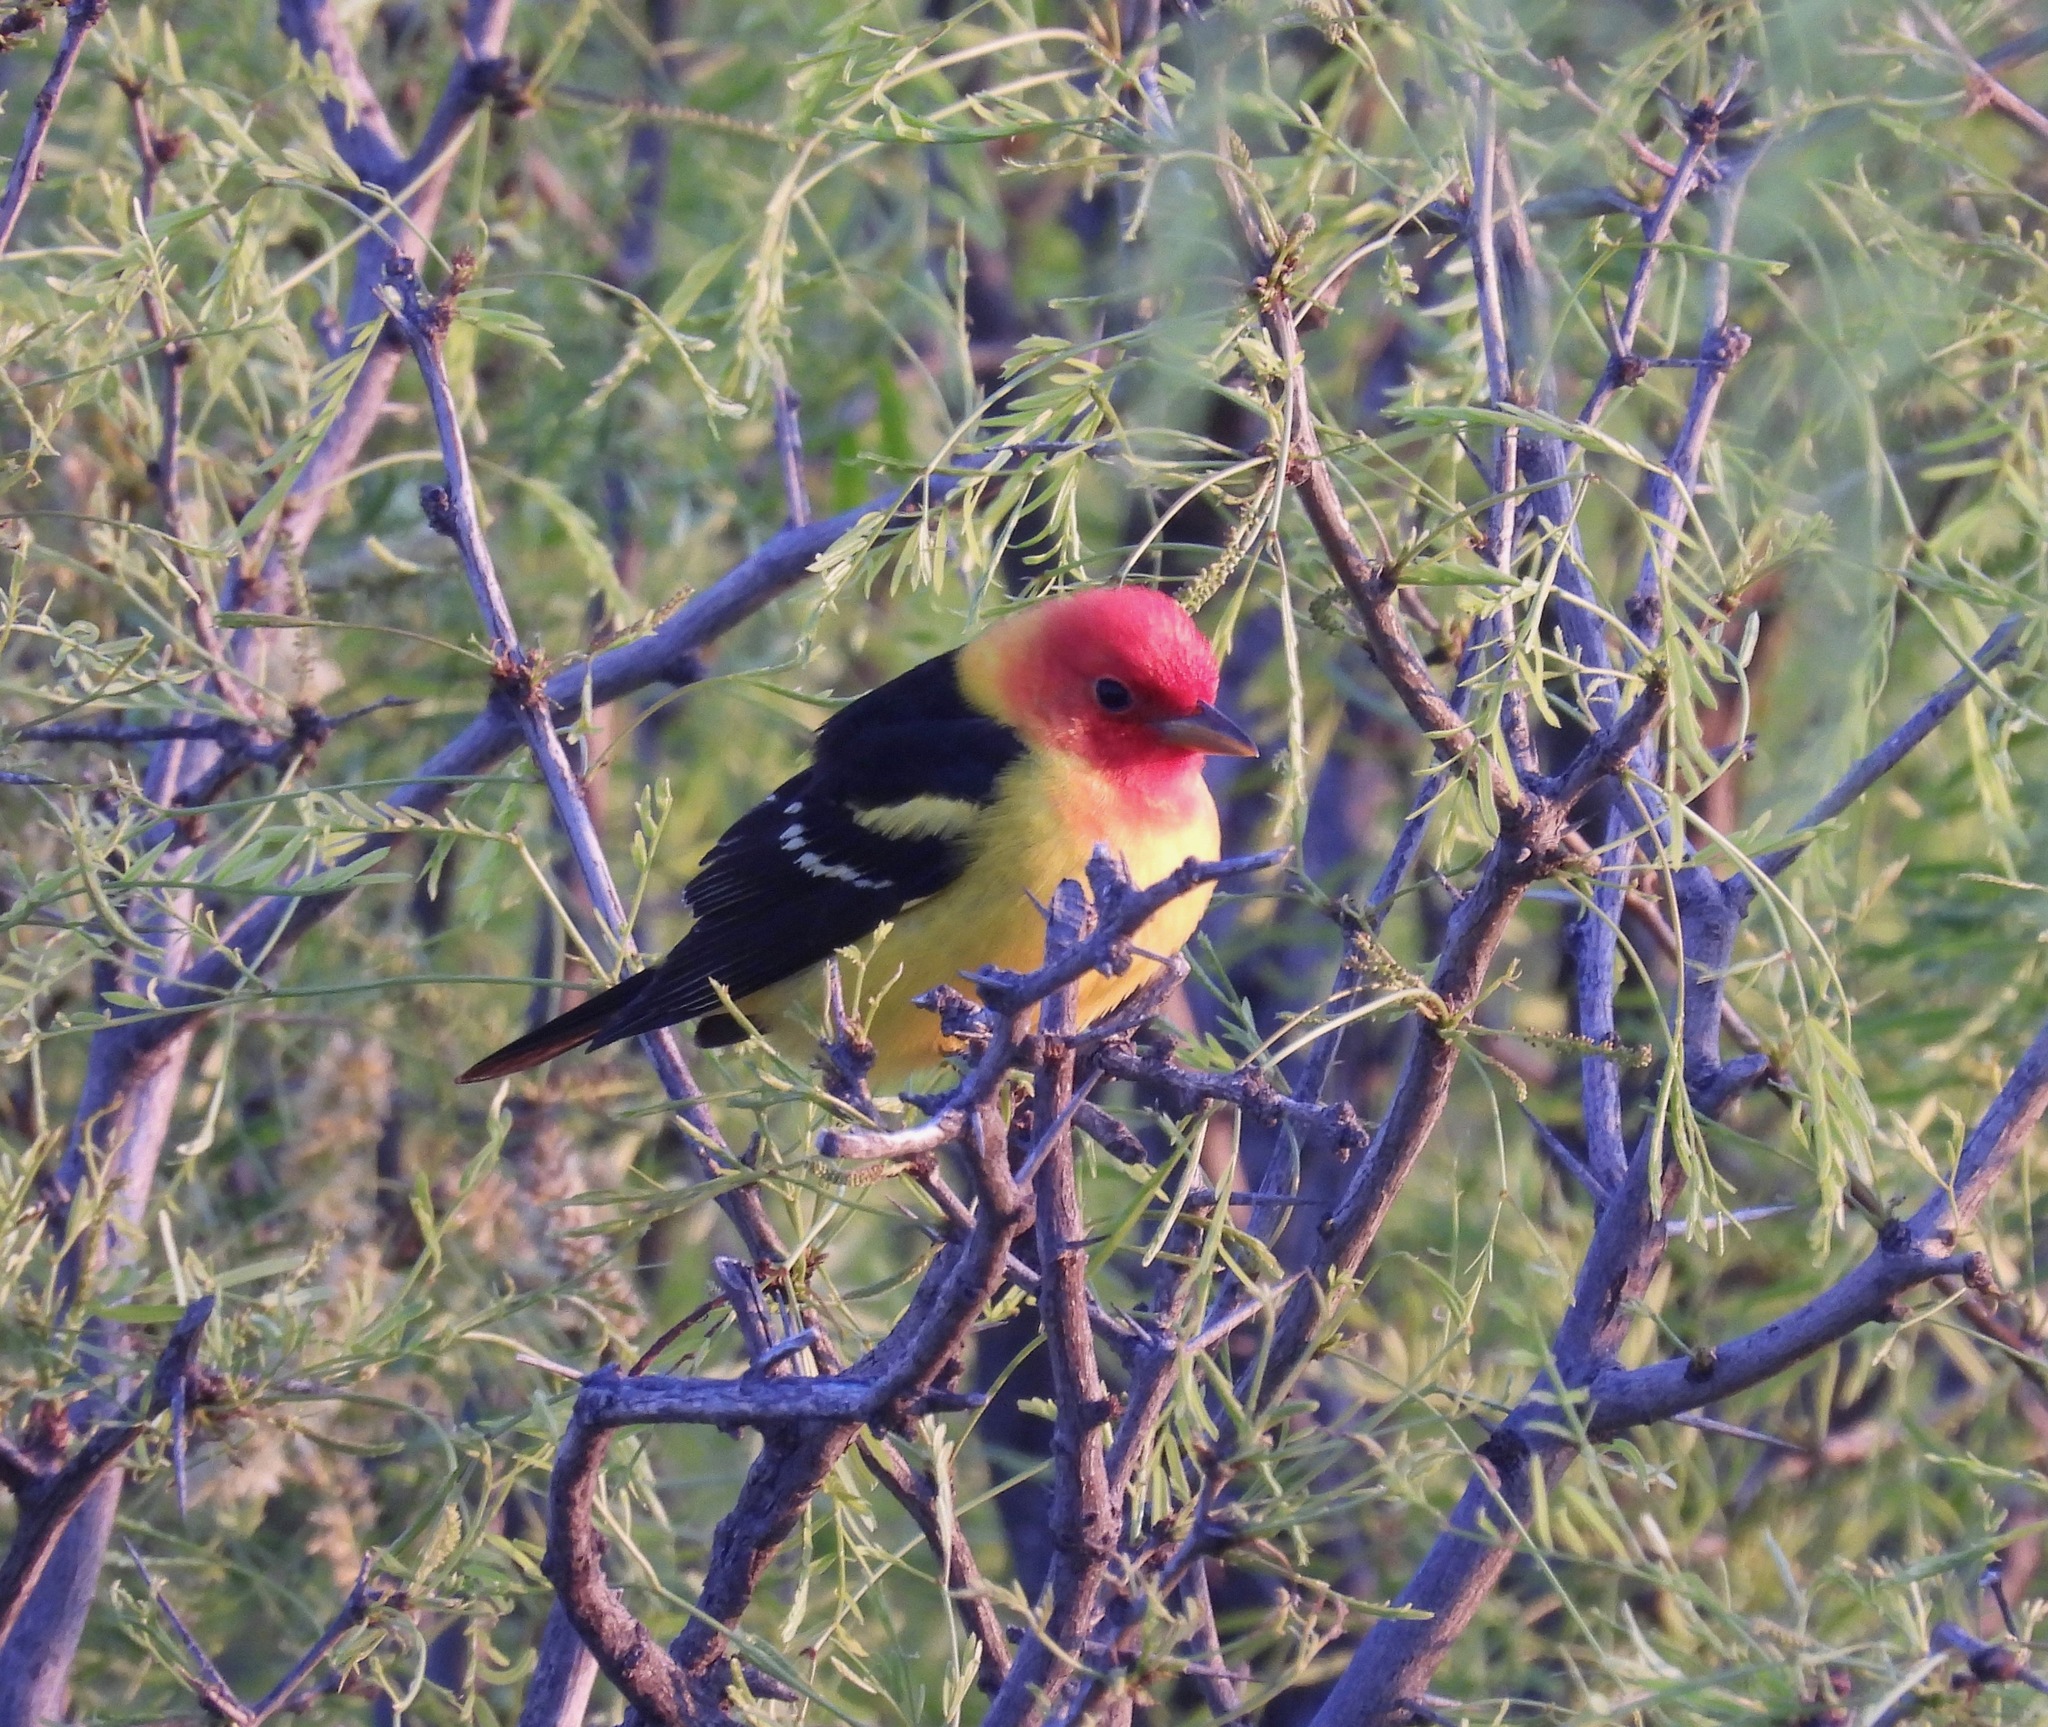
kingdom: Animalia
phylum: Chordata
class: Aves
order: Passeriformes
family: Cardinalidae
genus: Piranga
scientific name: Piranga ludoviciana
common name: Western tanager
